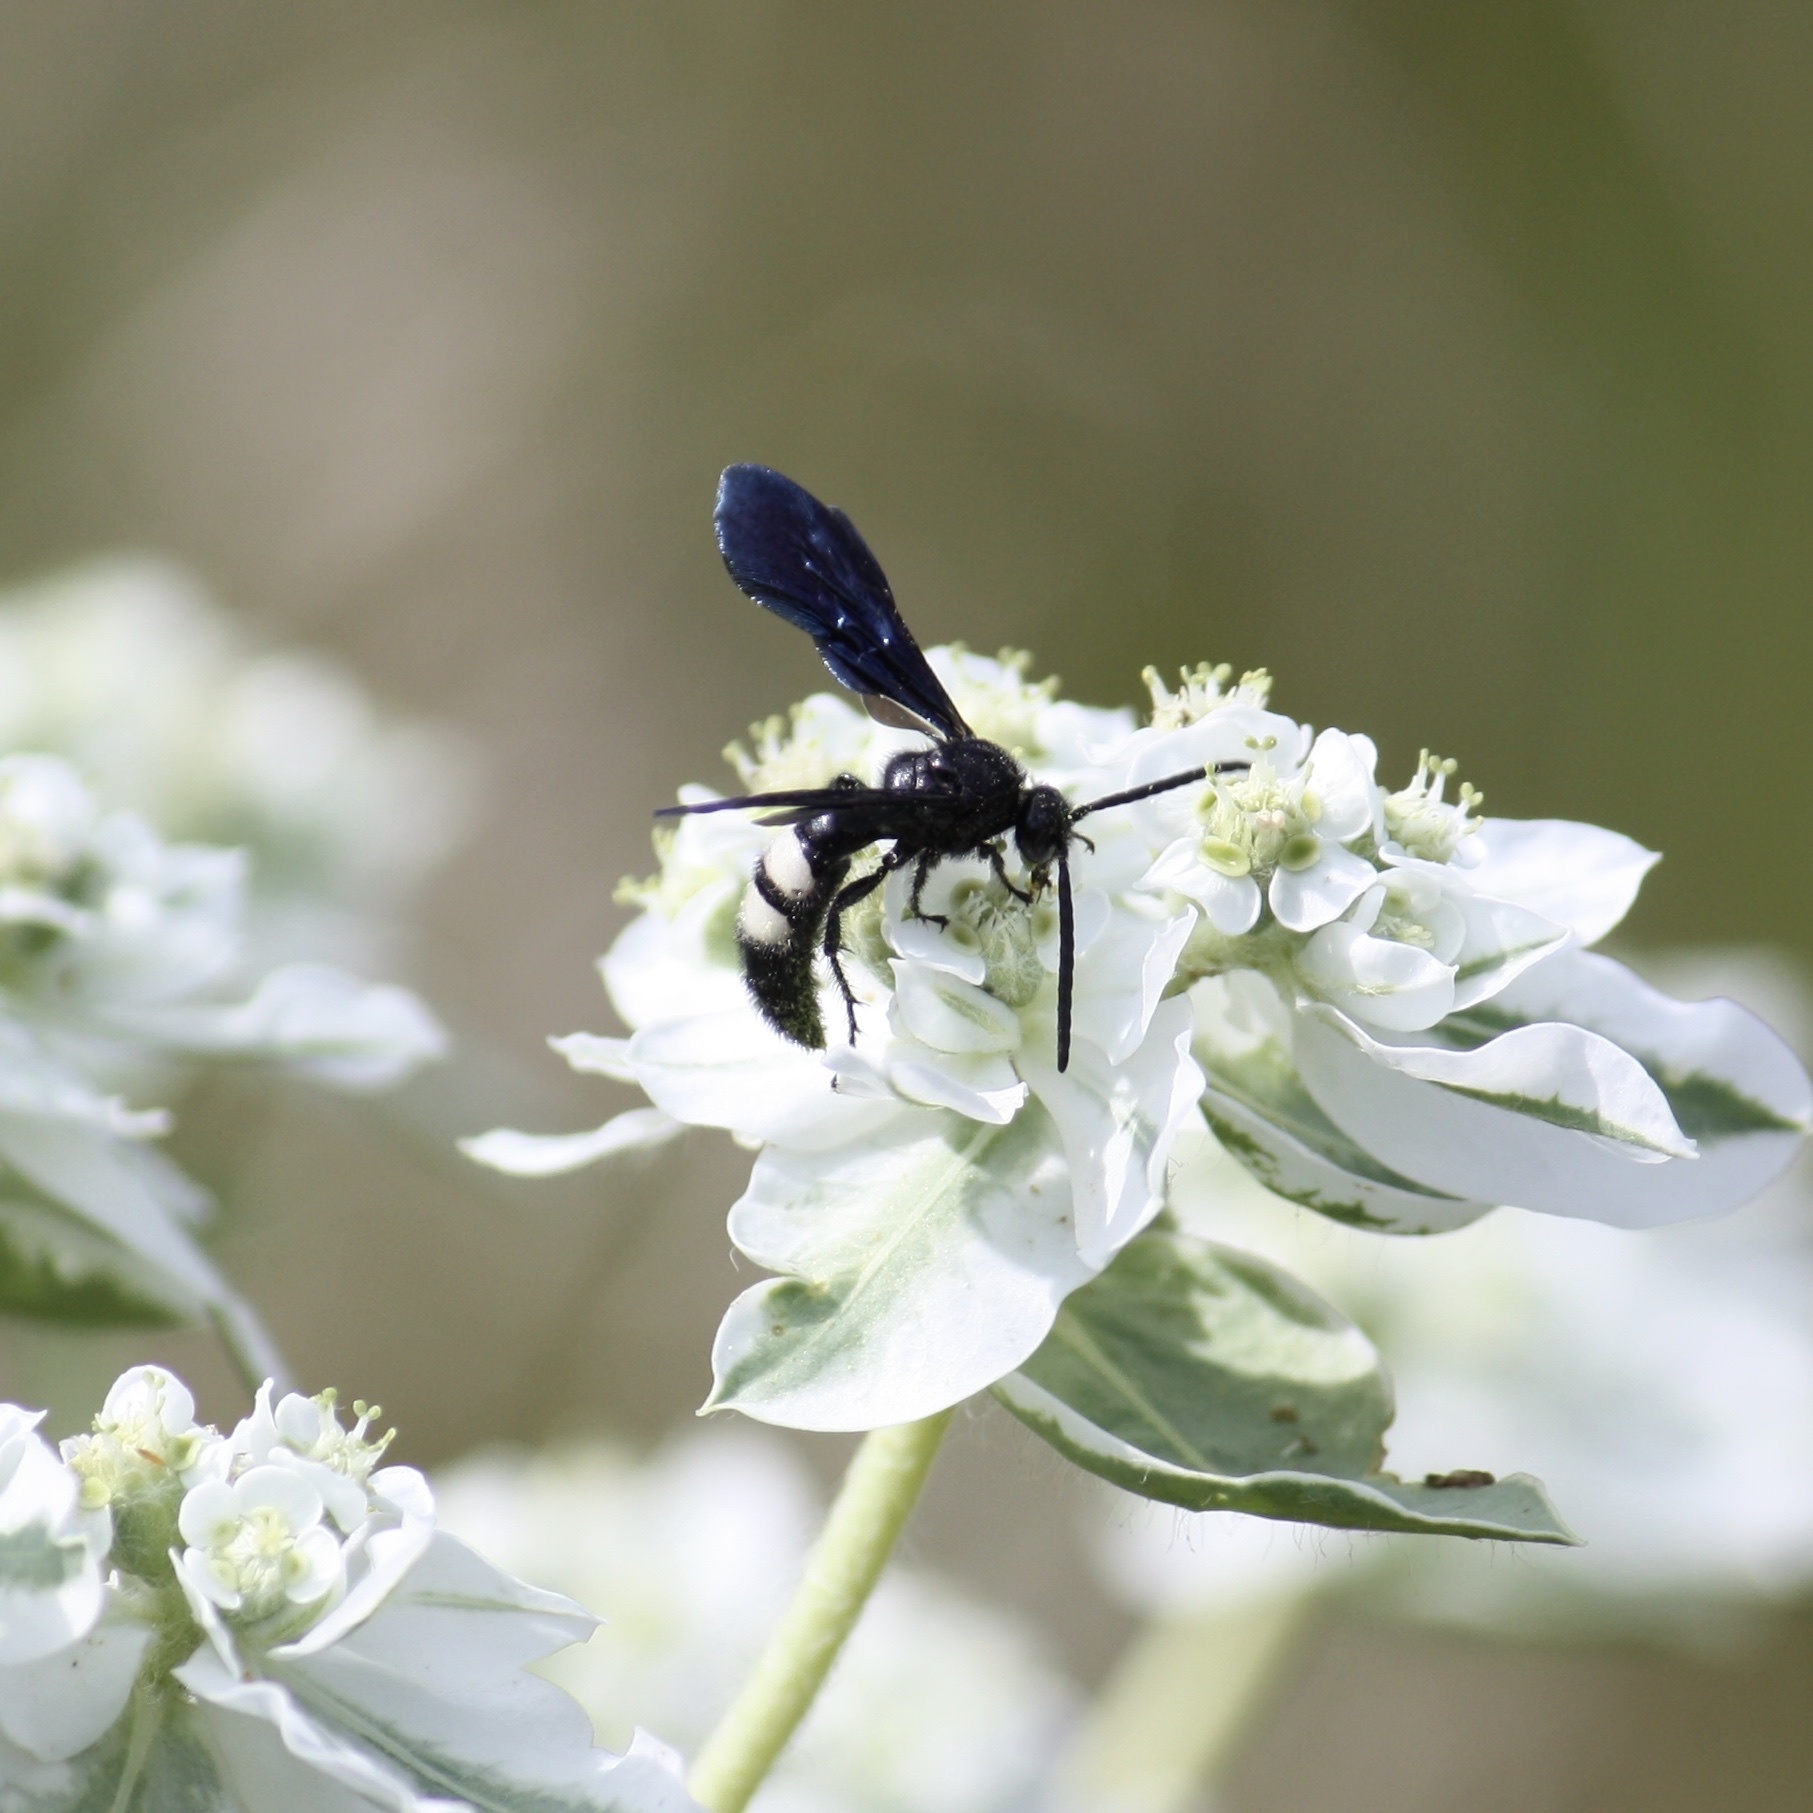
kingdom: Animalia
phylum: Arthropoda
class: Insecta
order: Hymenoptera
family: Scoliidae
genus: Scolia
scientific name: Scolia bicincta
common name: Double-banded scoliid wasp
